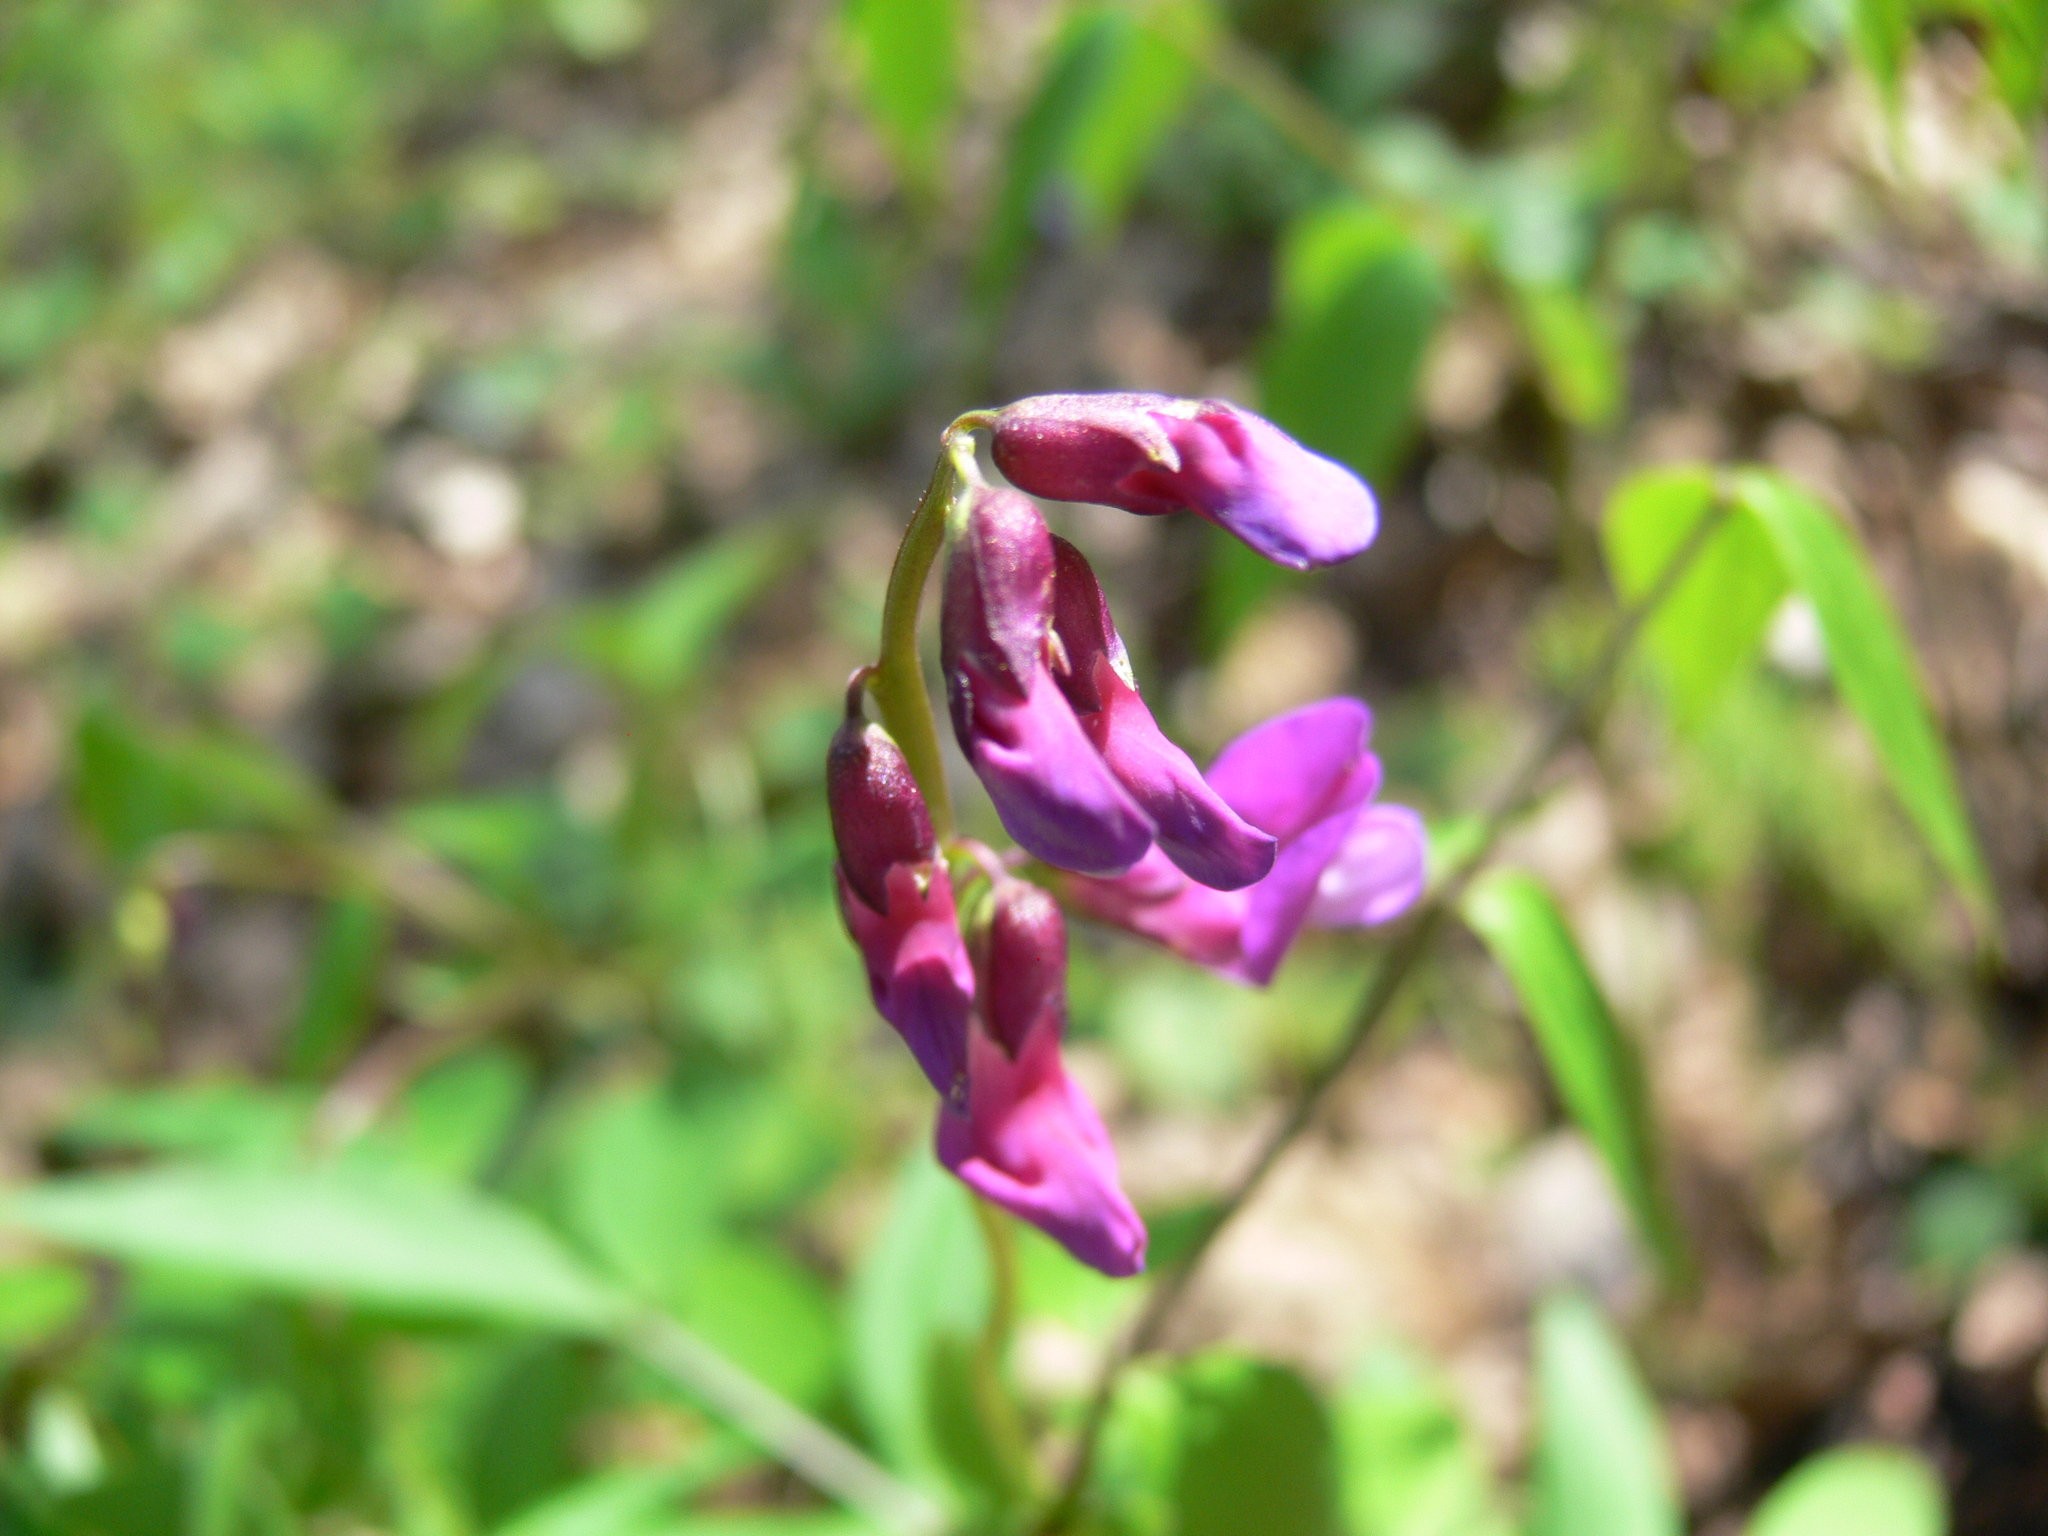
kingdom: Plantae
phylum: Tracheophyta
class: Magnoliopsida
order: Fabales
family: Fabaceae
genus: Lathyrus
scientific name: Lathyrus vernus
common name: Spring pea
